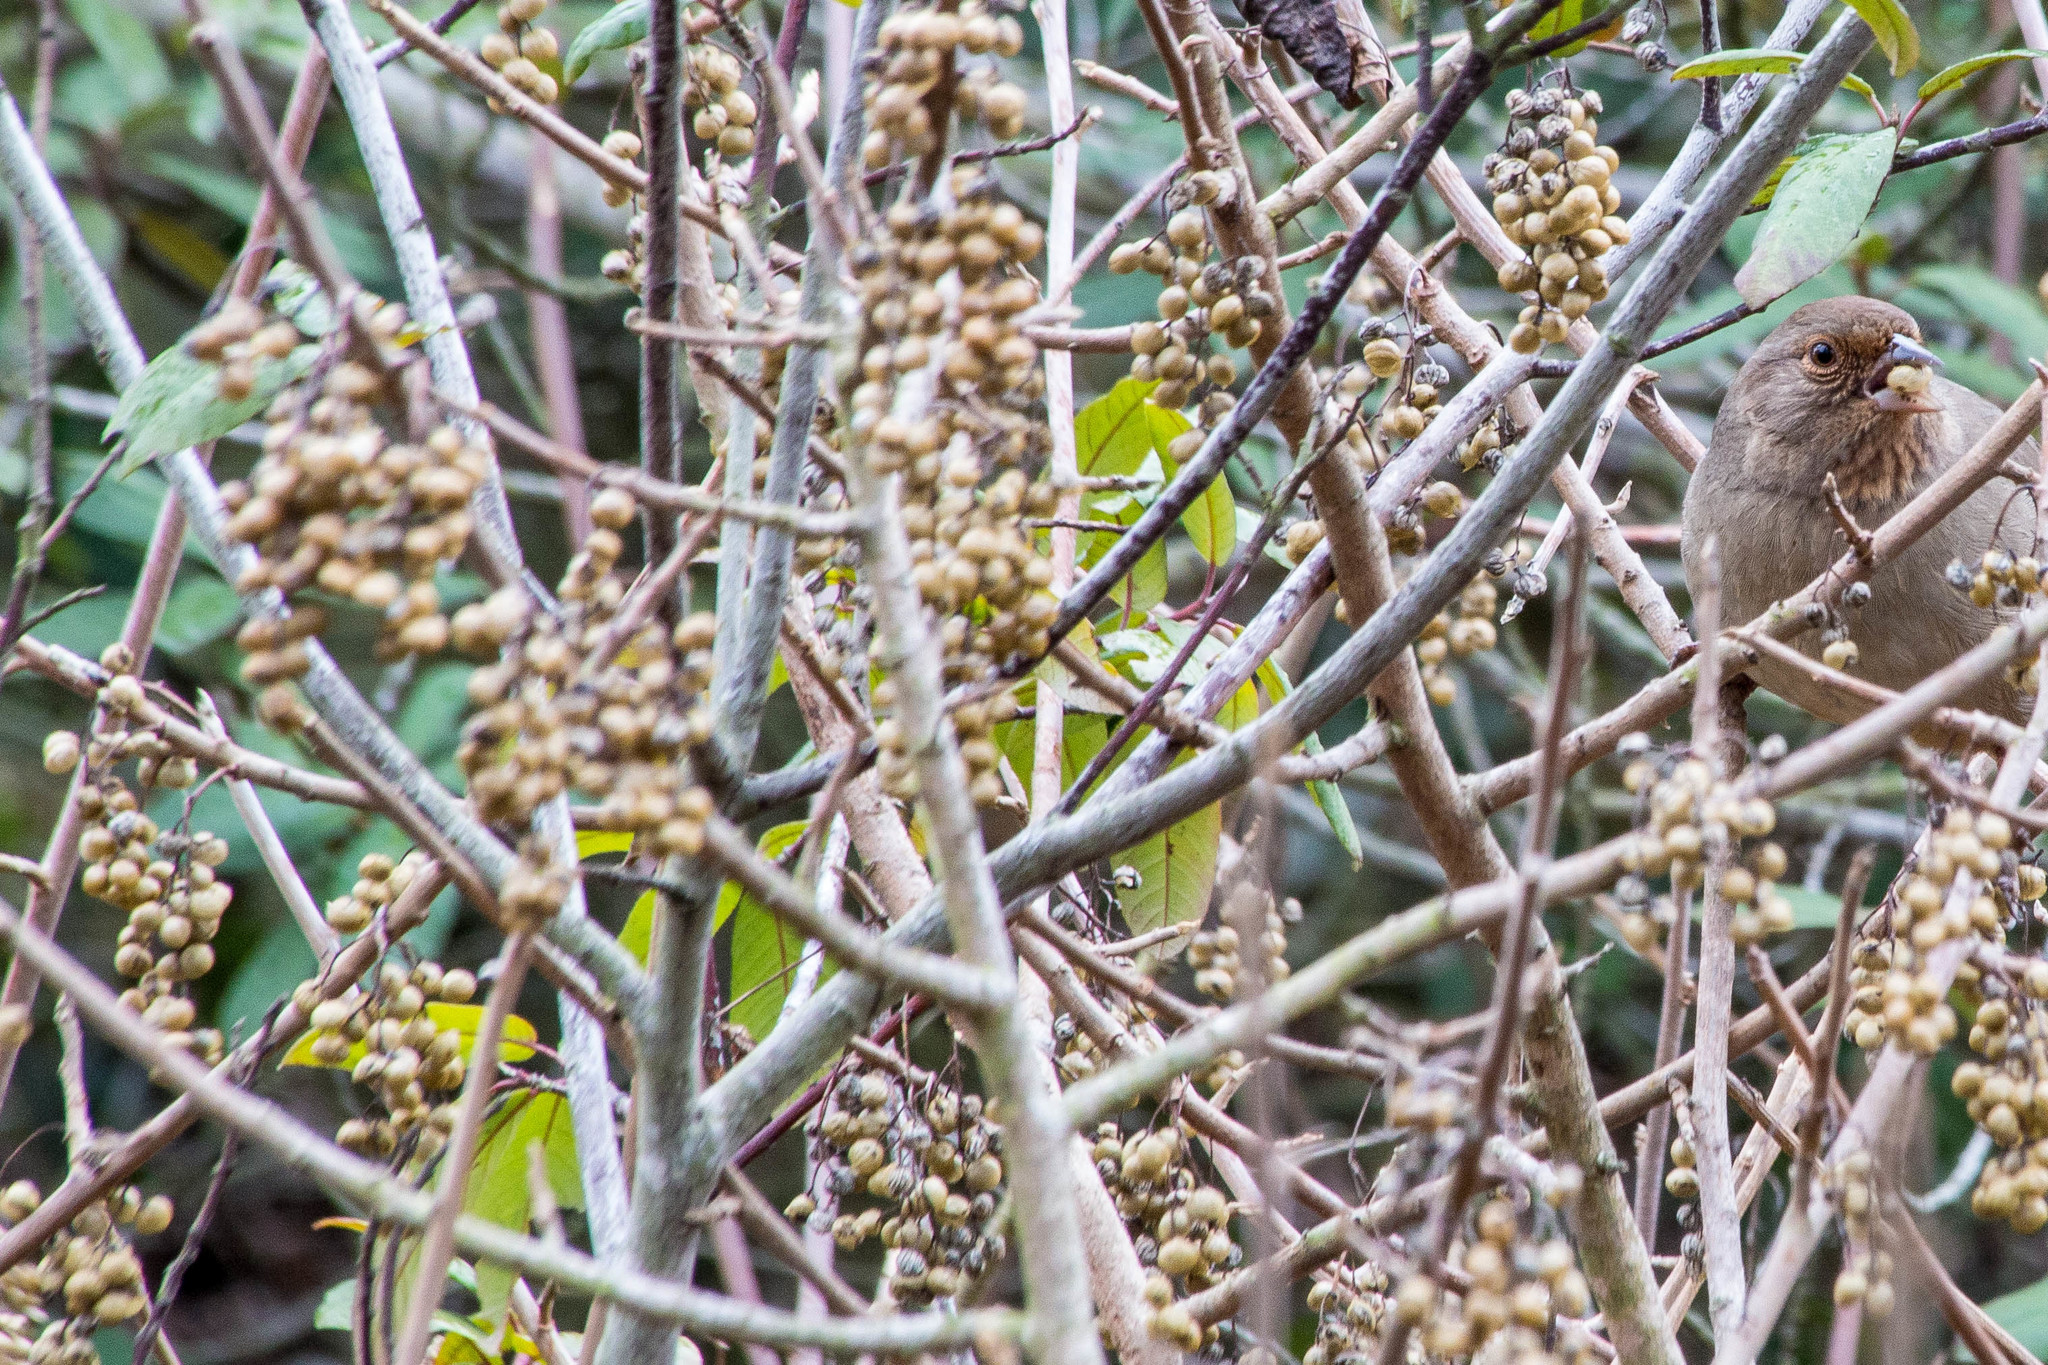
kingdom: Plantae
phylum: Tracheophyta
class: Magnoliopsida
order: Sapindales
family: Anacardiaceae
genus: Toxicodendron
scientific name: Toxicodendron diversilobum
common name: Pacific poison-oak
